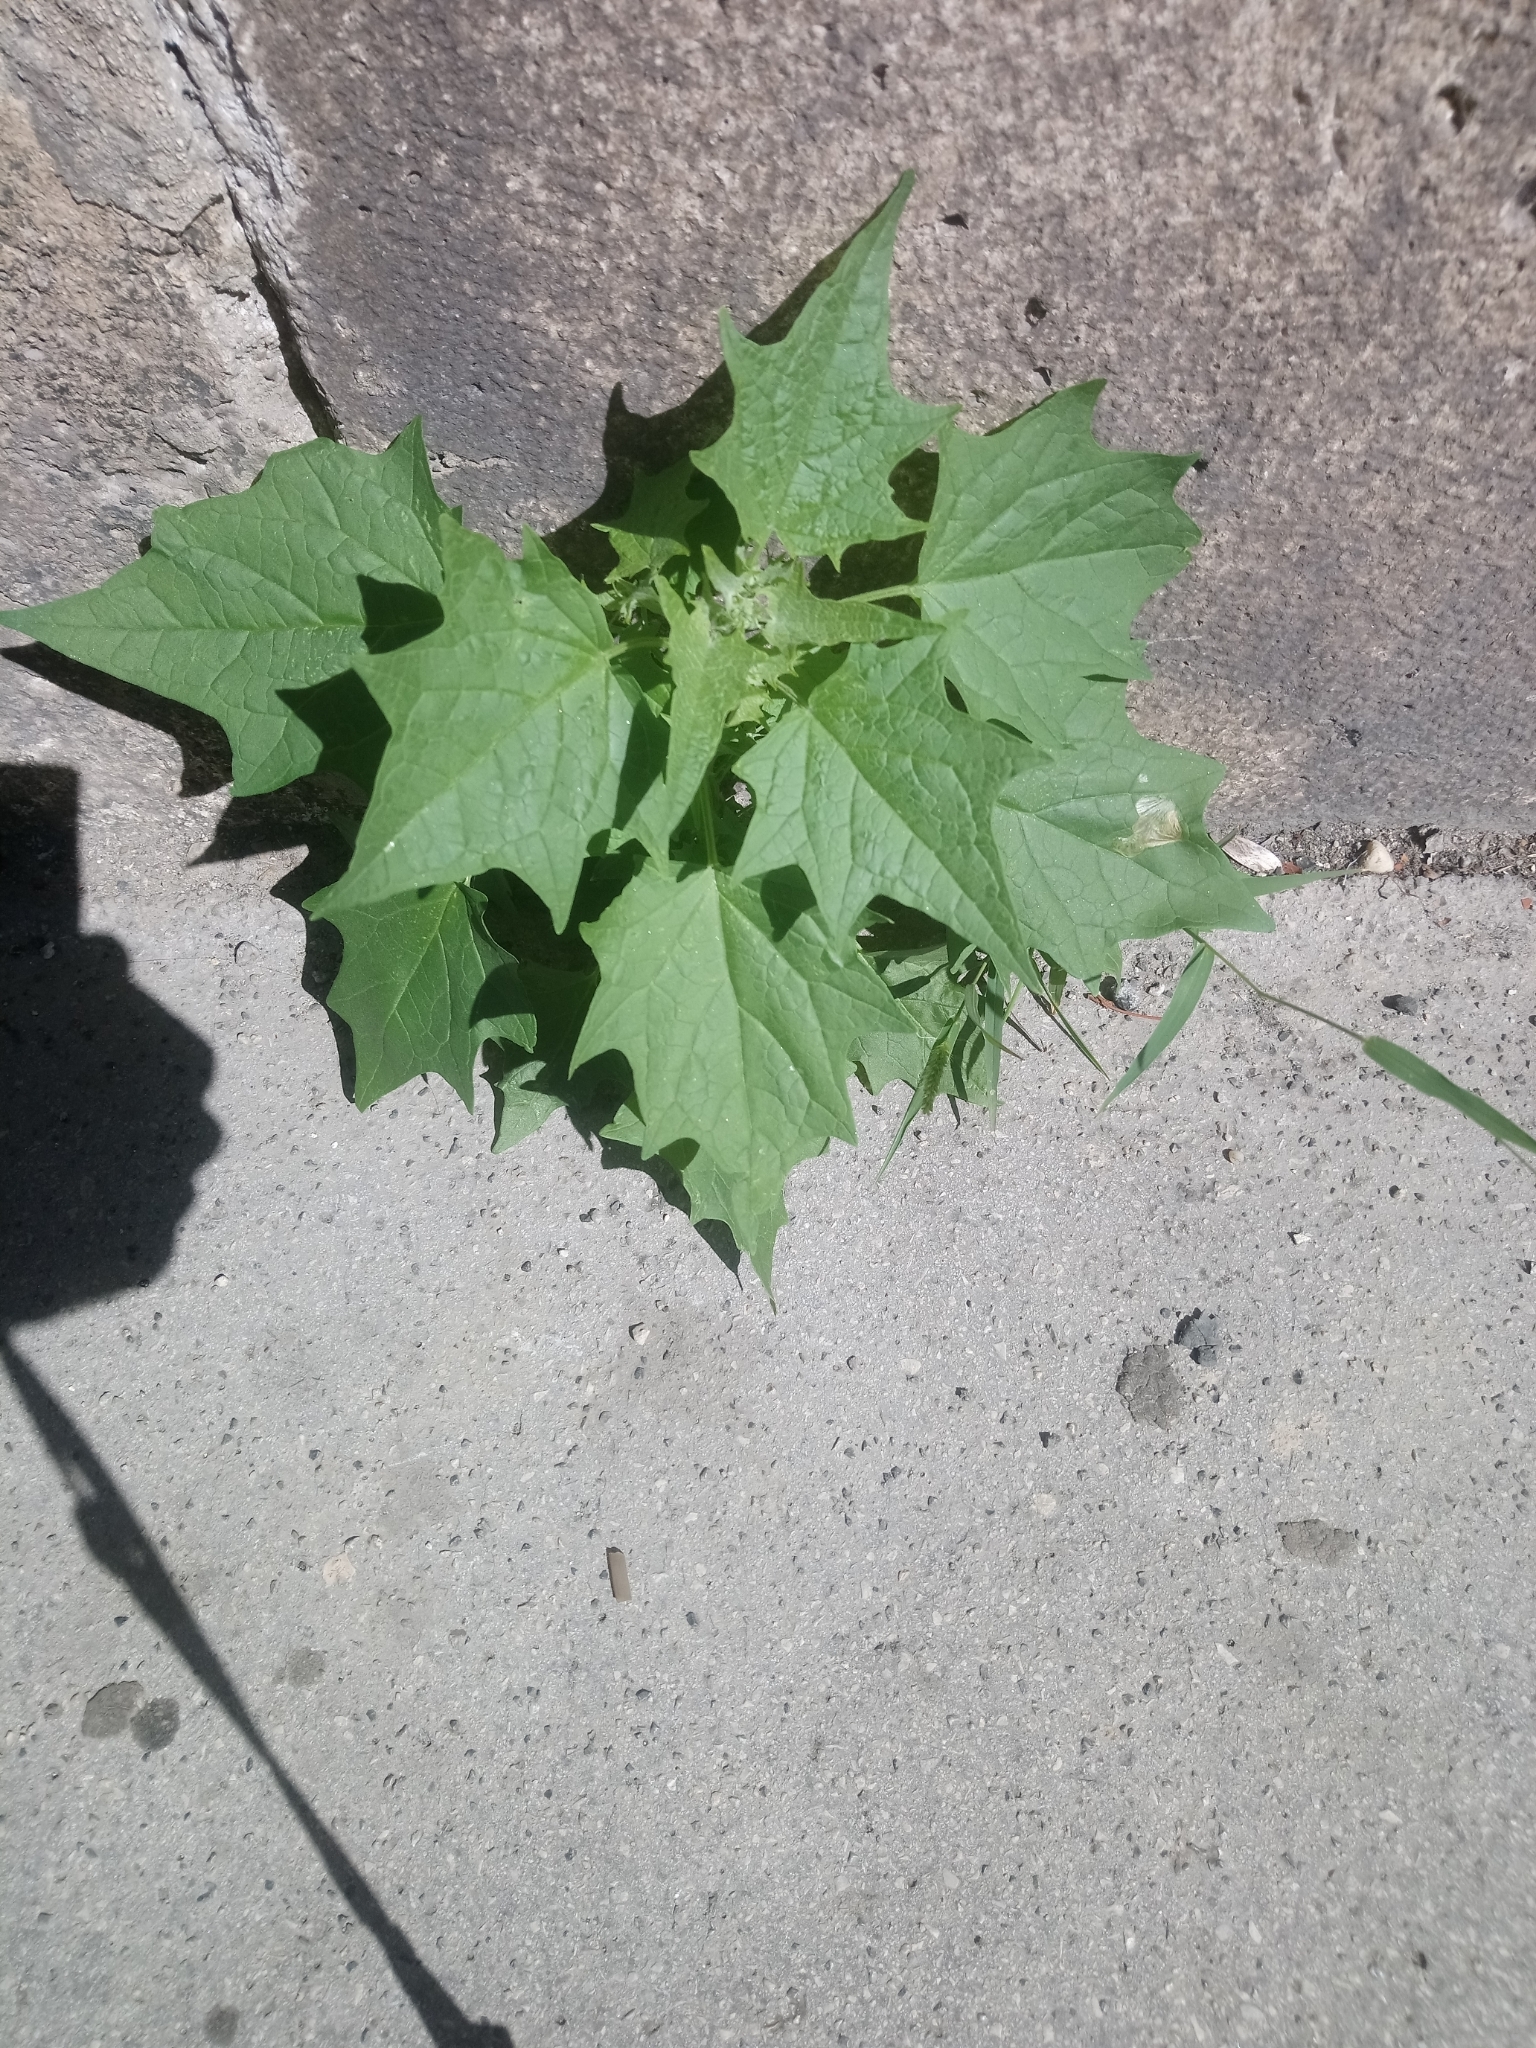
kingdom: Plantae
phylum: Tracheophyta
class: Magnoliopsida
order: Caryophyllales
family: Amaranthaceae
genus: Chenopodiastrum
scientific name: Chenopodiastrum hybridum
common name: Mapleleaf goosefoot
